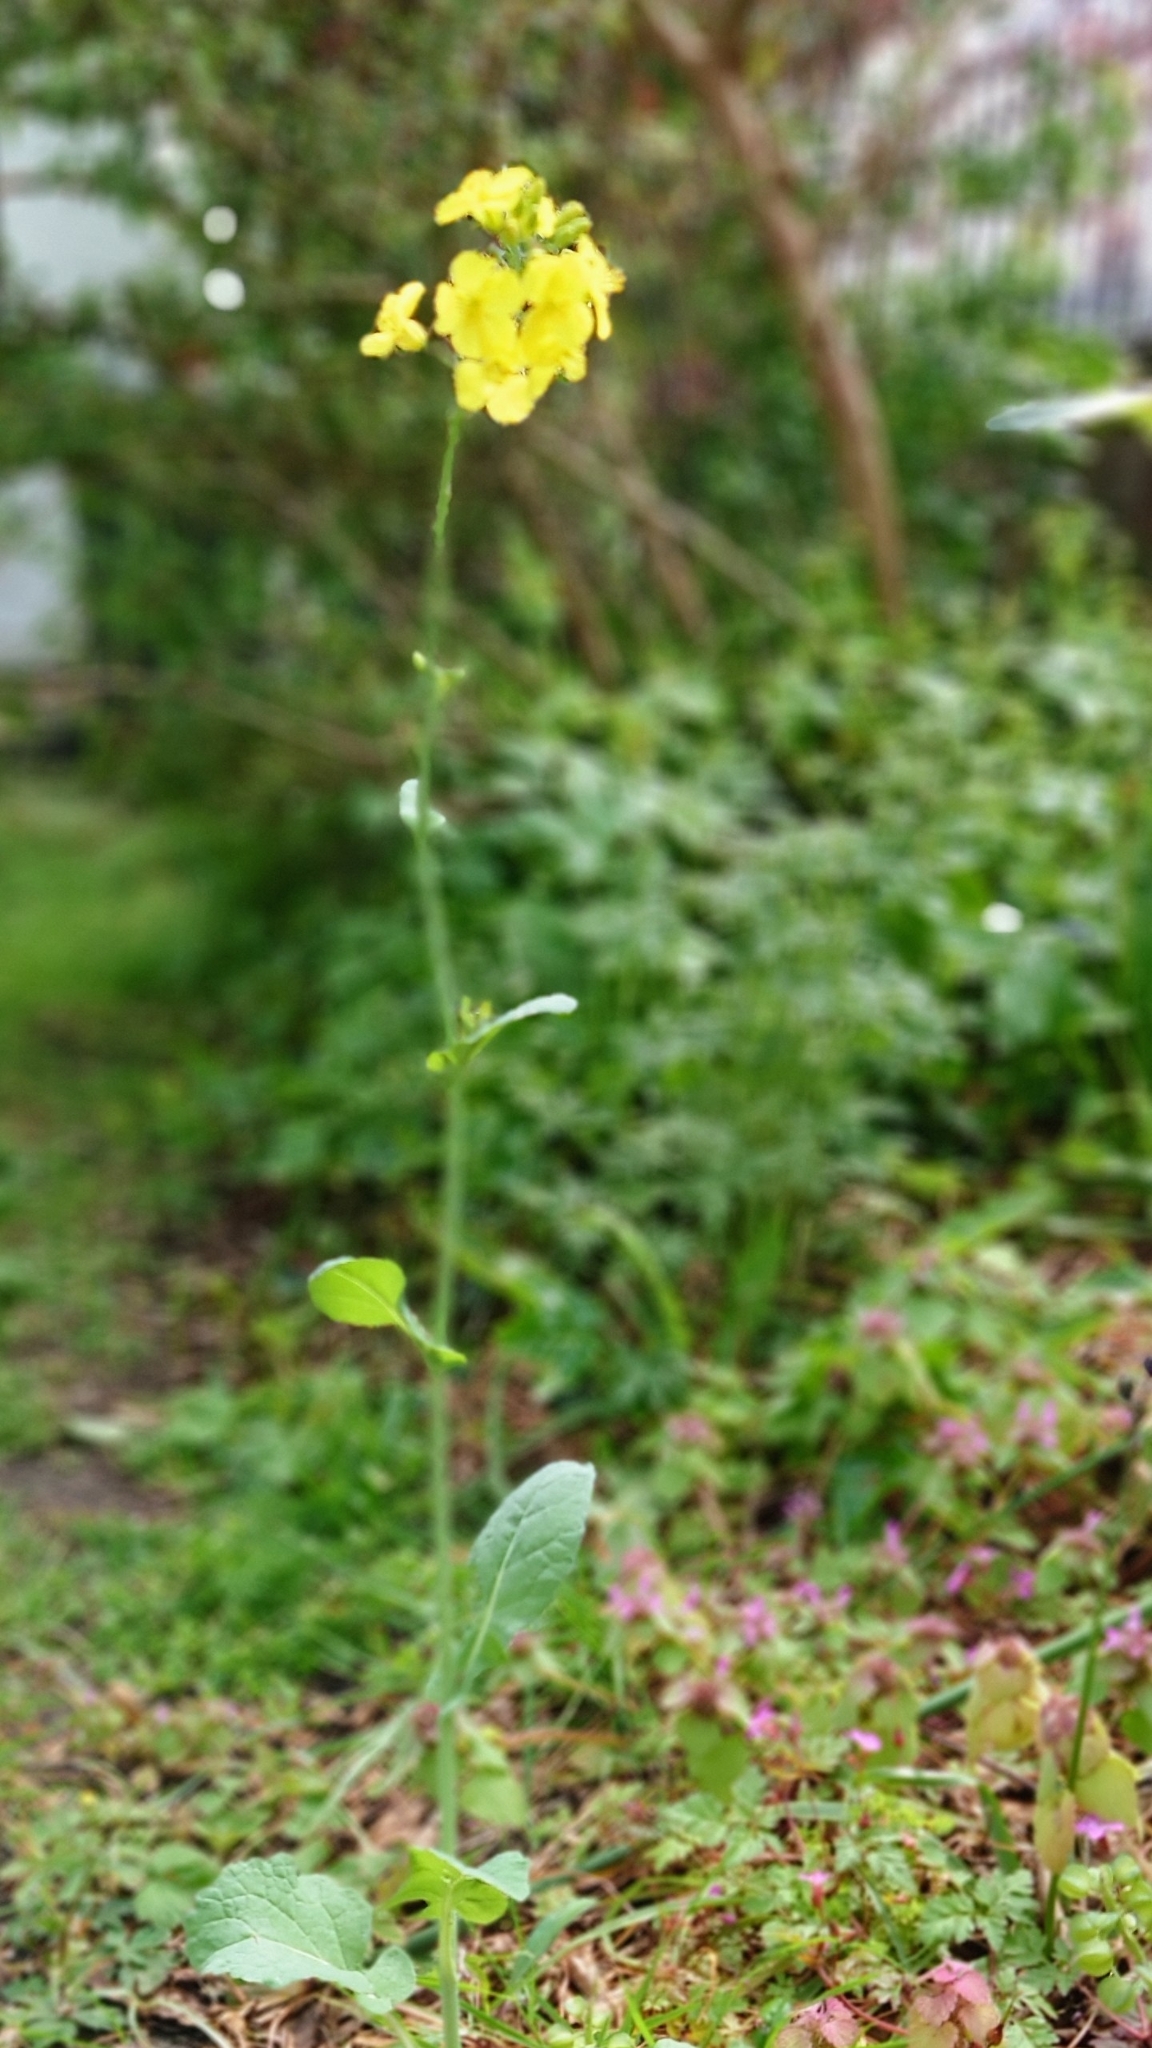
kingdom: Plantae
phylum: Tracheophyta
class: Magnoliopsida
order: Brassicales
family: Brassicaceae
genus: Brassica
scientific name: Brassica napus
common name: Rape
